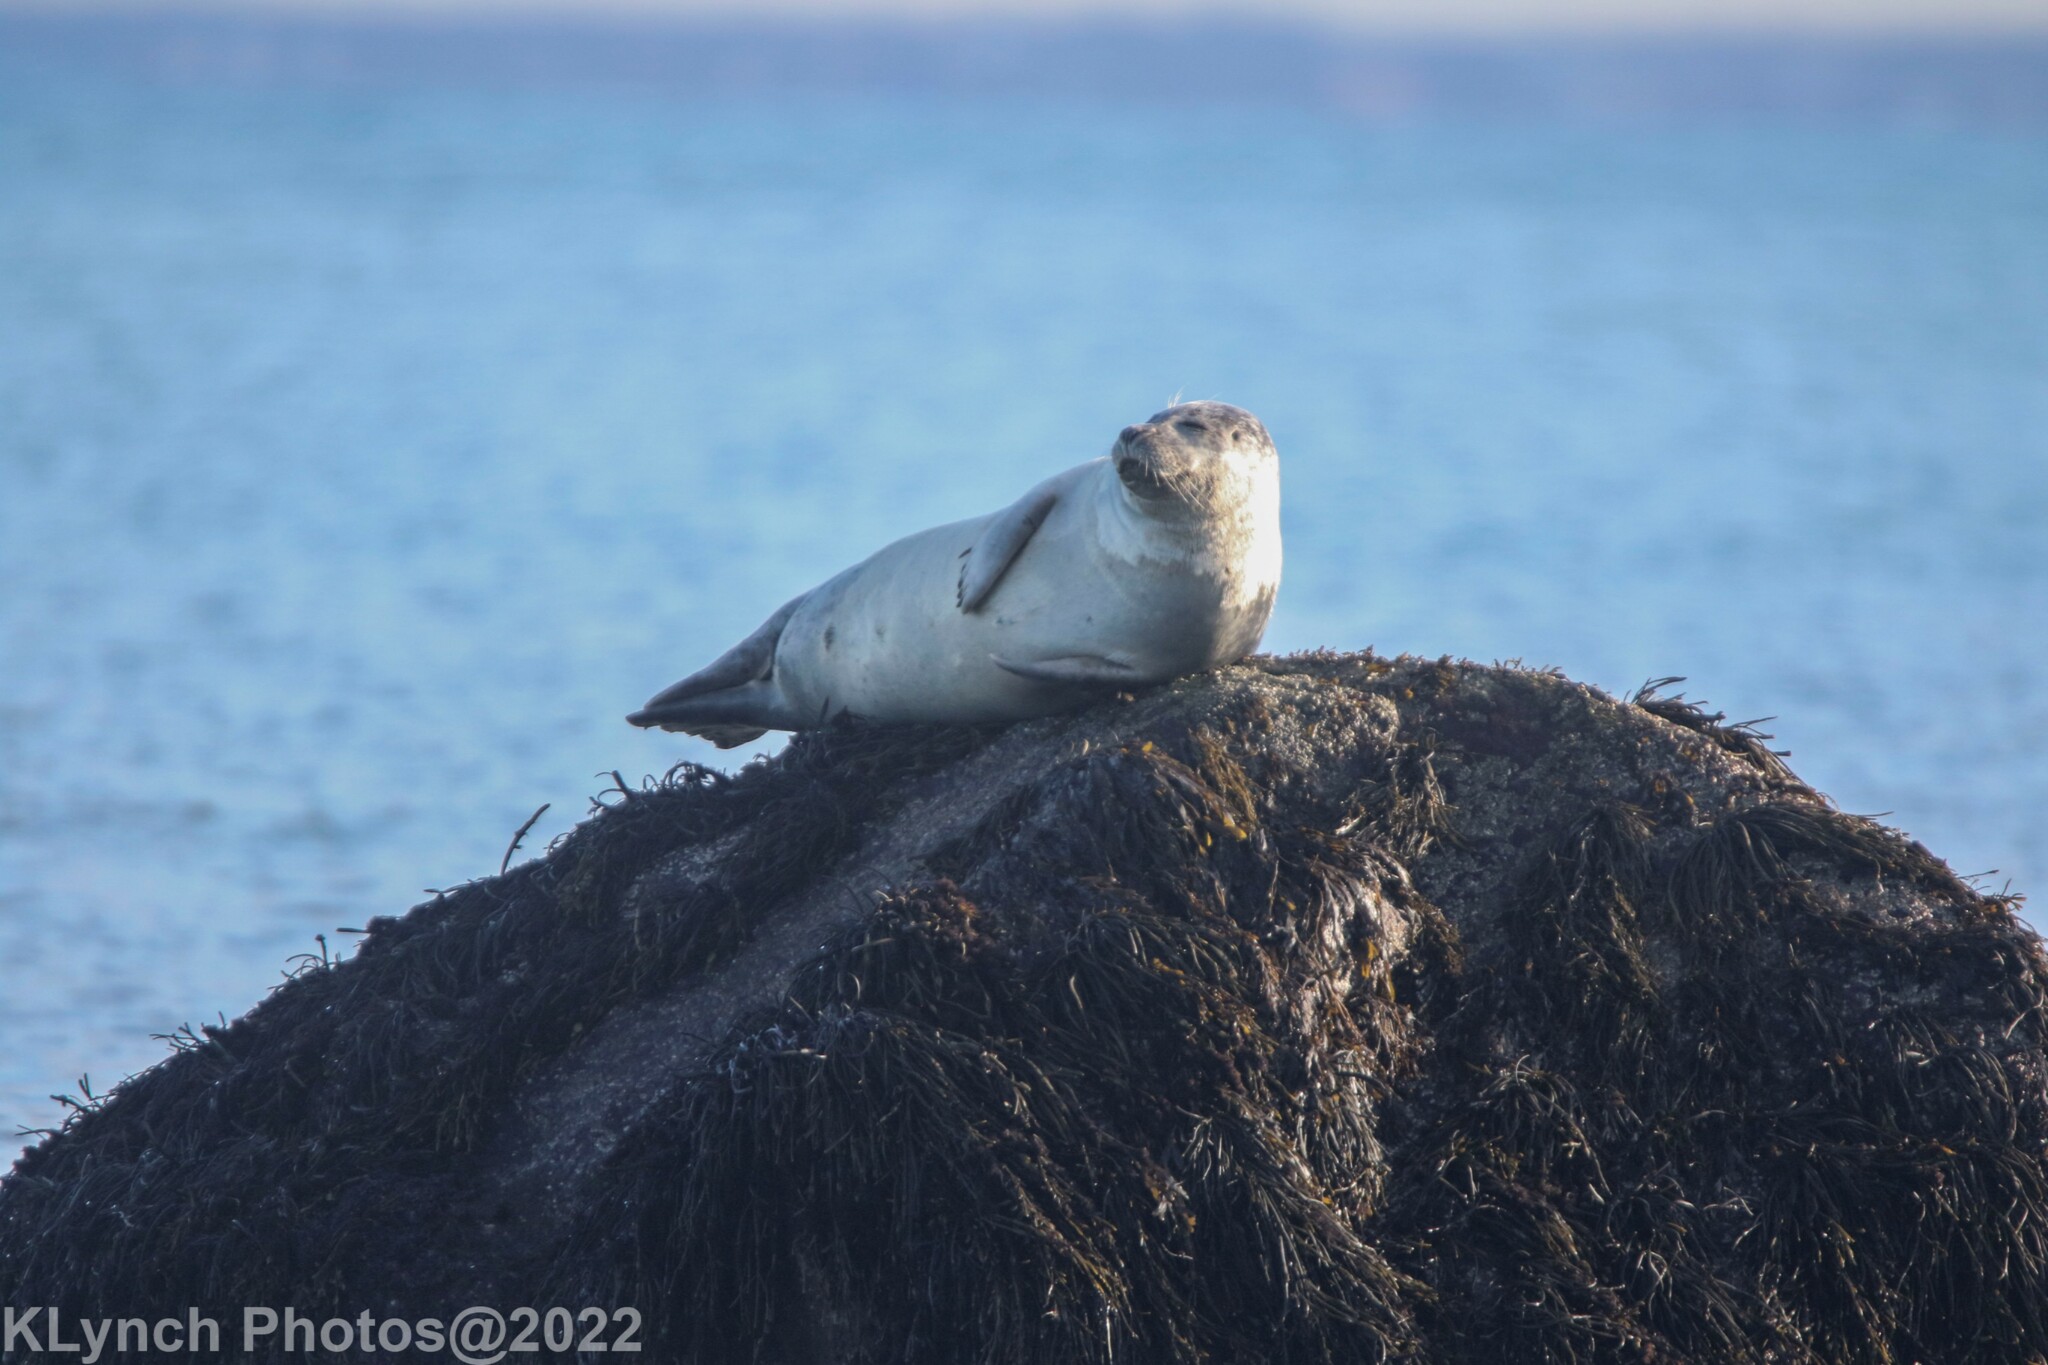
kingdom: Animalia
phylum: Chordata
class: Mammalia
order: Carnivora
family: Phocidae
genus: Phoca
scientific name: Phoca vitulina
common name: Harbor seal
